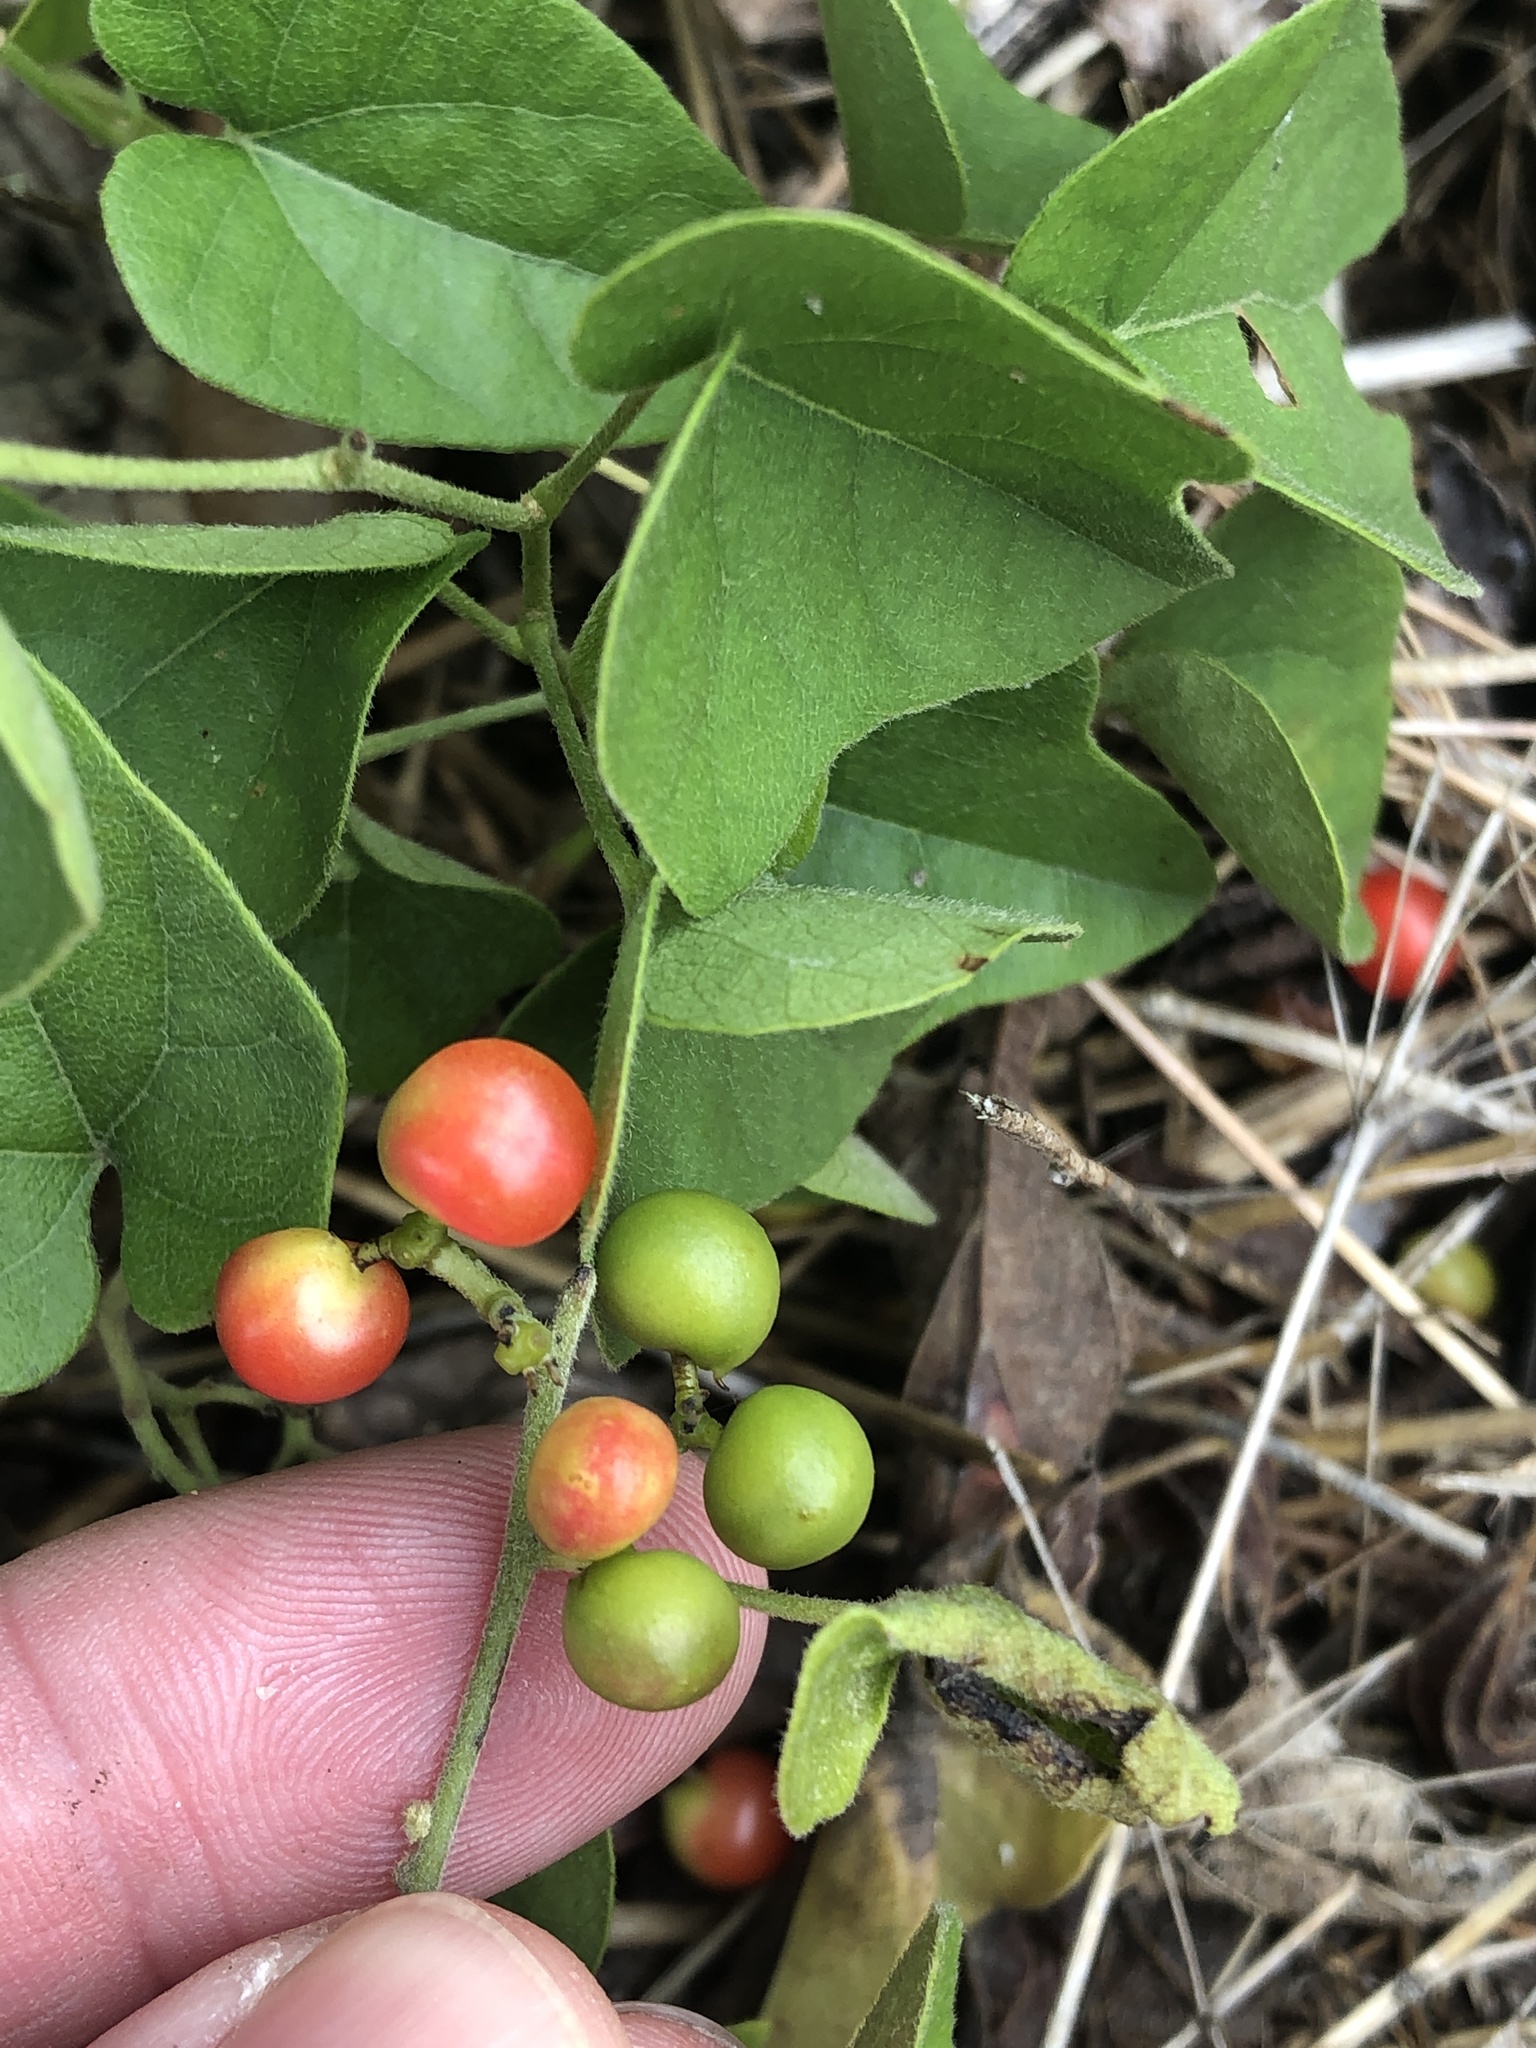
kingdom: Plantae
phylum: Tracheophyta
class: Magnoliopsida
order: Ranunculales
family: Menispermaceae
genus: Cocculus
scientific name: Cocculus carolinus
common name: Carolina moonseed
